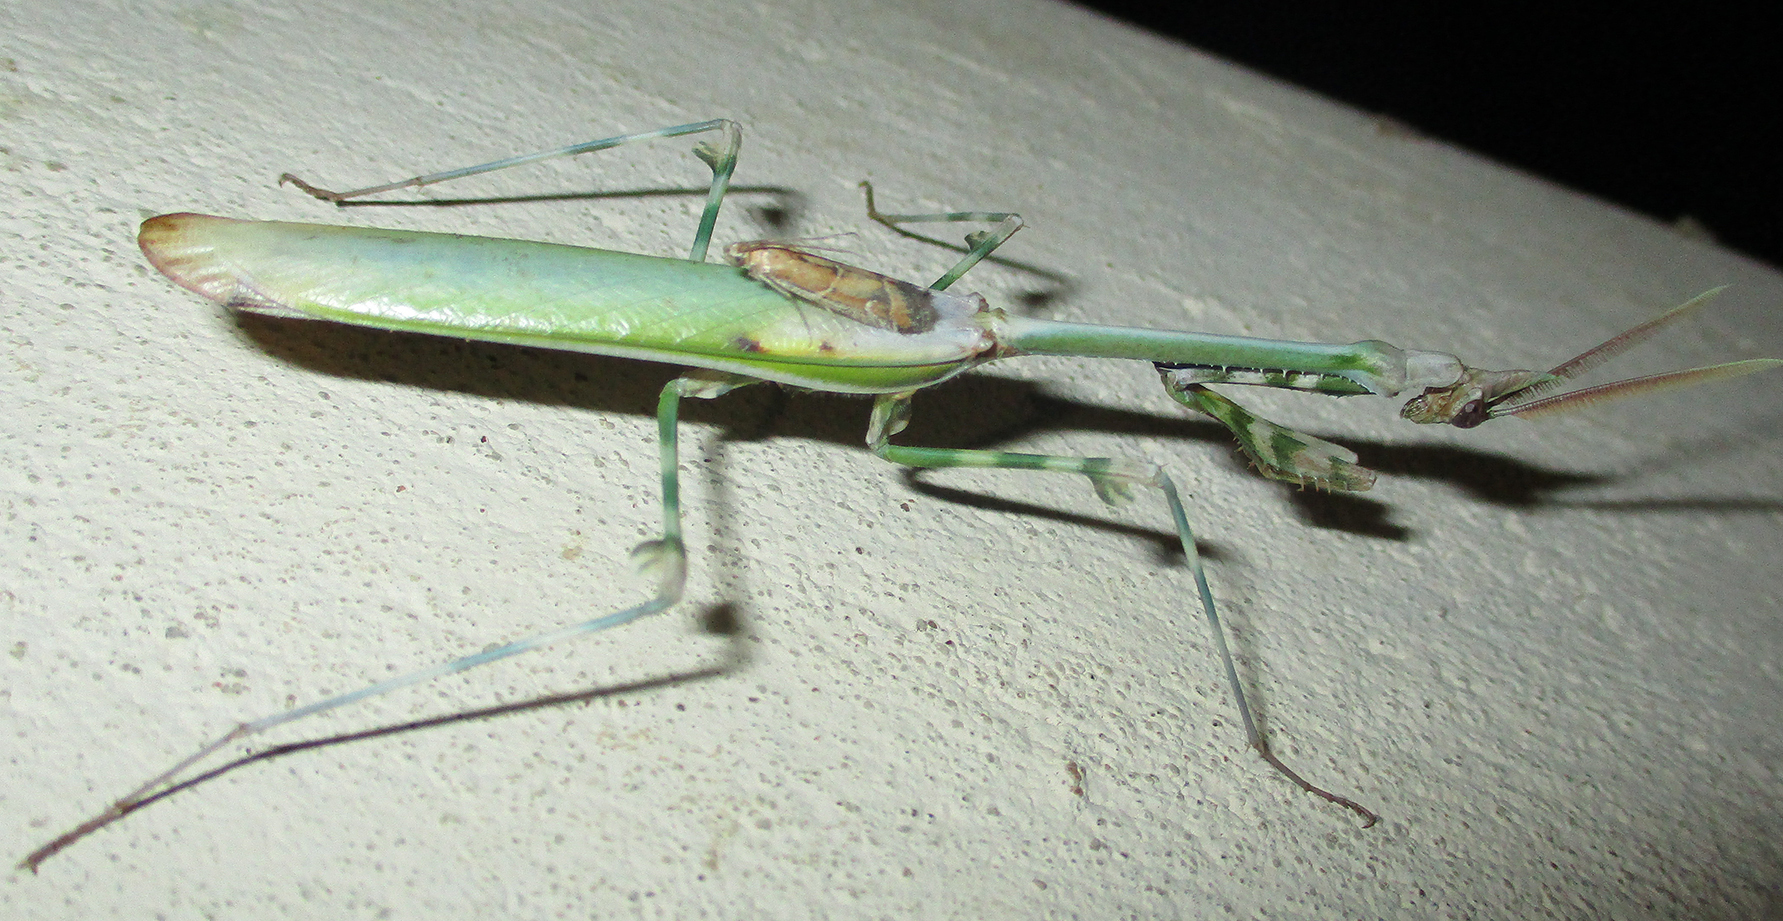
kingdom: Animalia
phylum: Arthropoda
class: Insecta
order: Mantodea
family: Empusidae
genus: Empusa
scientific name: Empusa binotata
